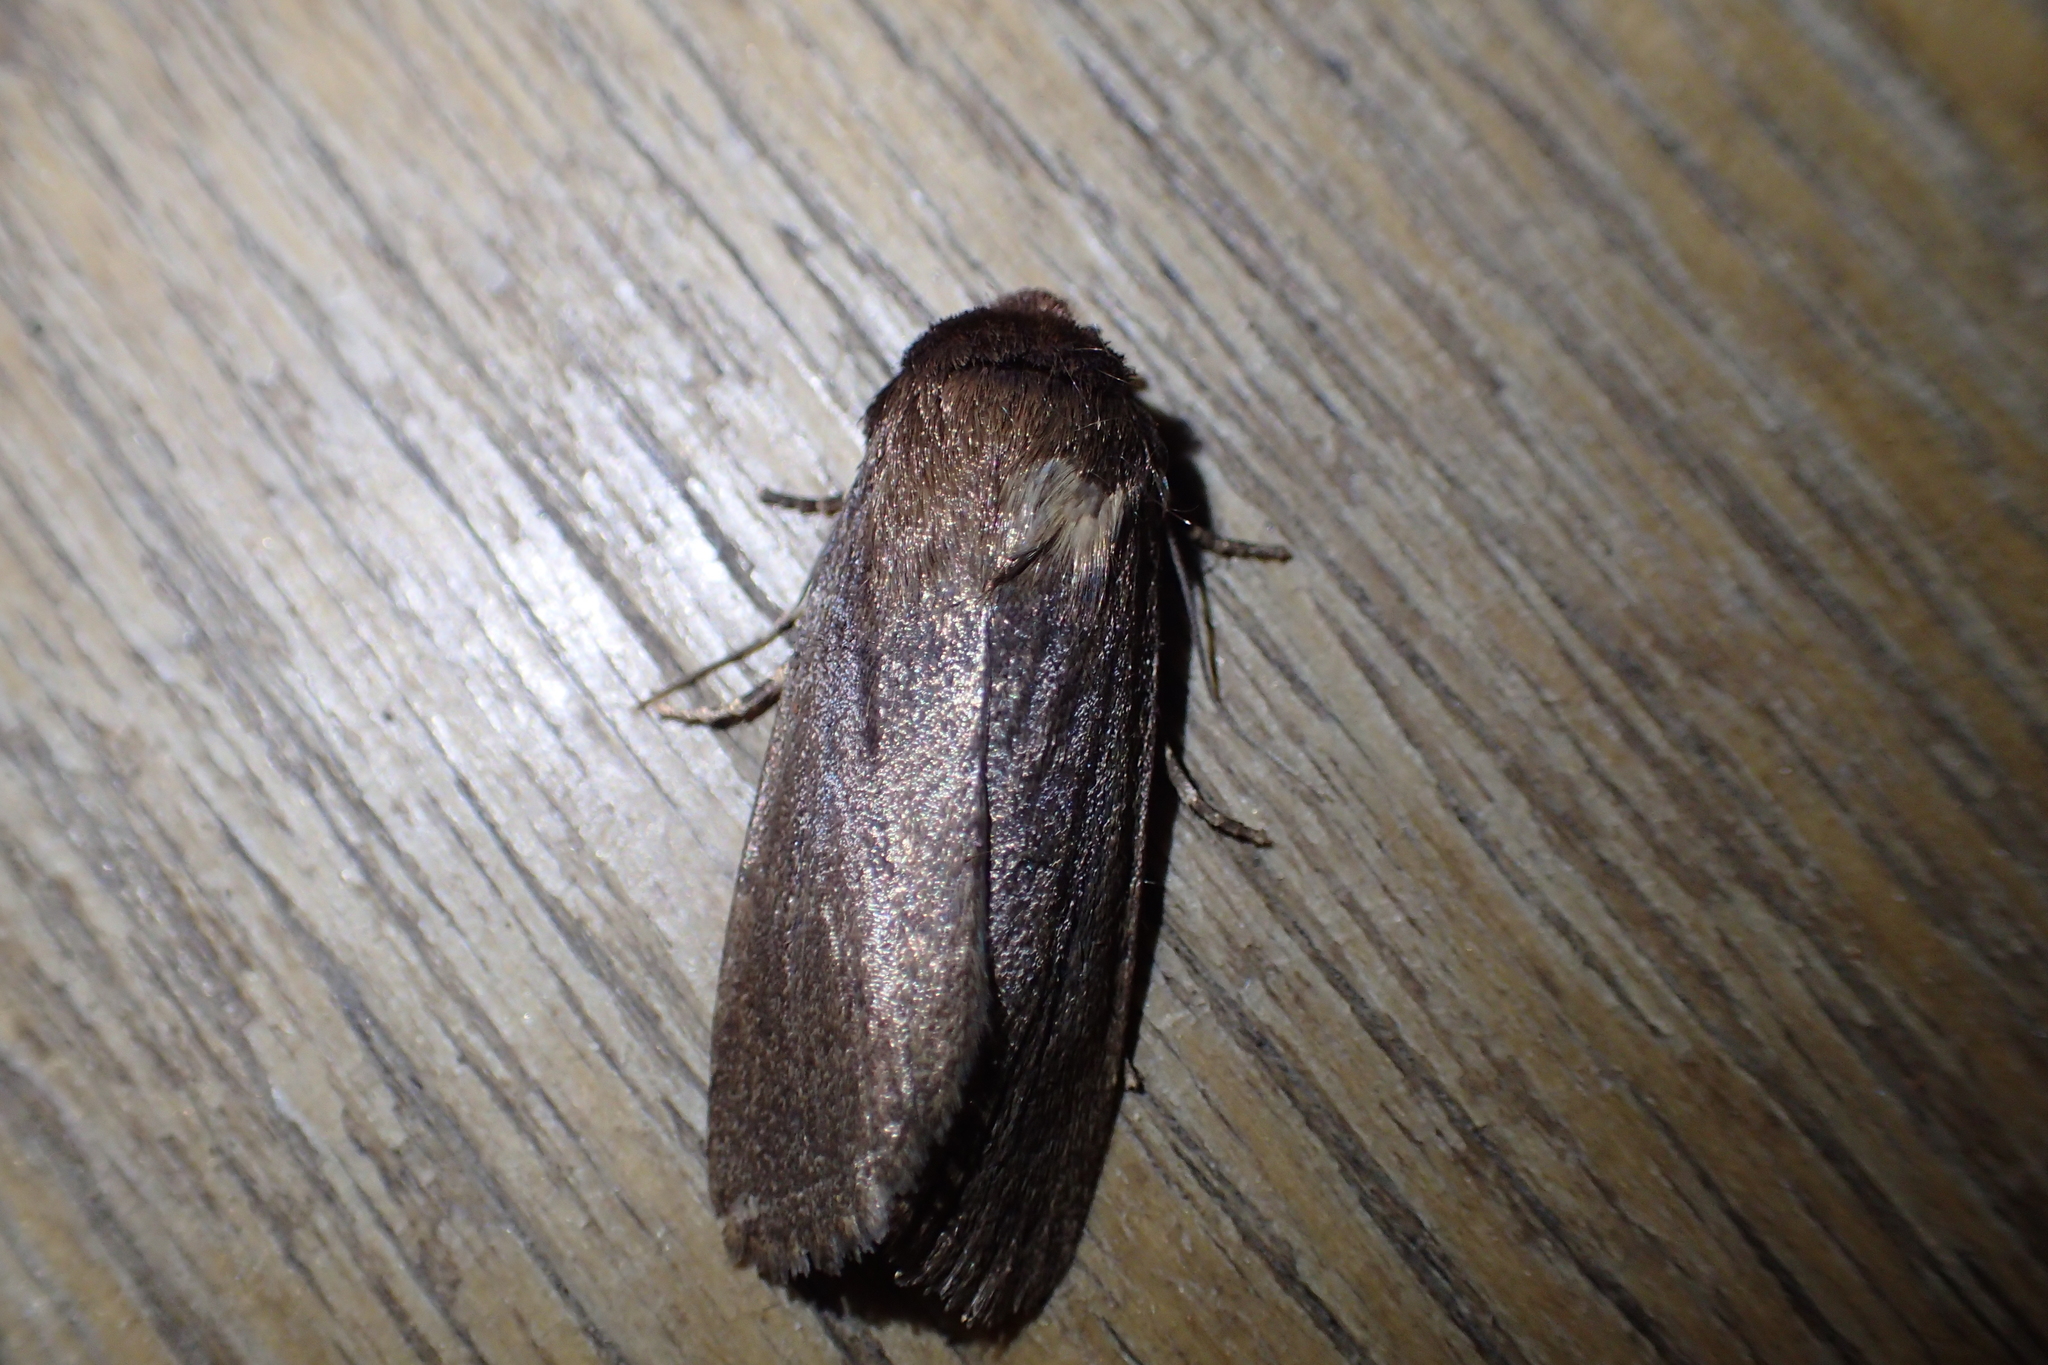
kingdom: Animalia
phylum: Arthropoda
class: Insecta
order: Lepidoptera
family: Noctuidae
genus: Bityla
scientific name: Bityla defigurata
